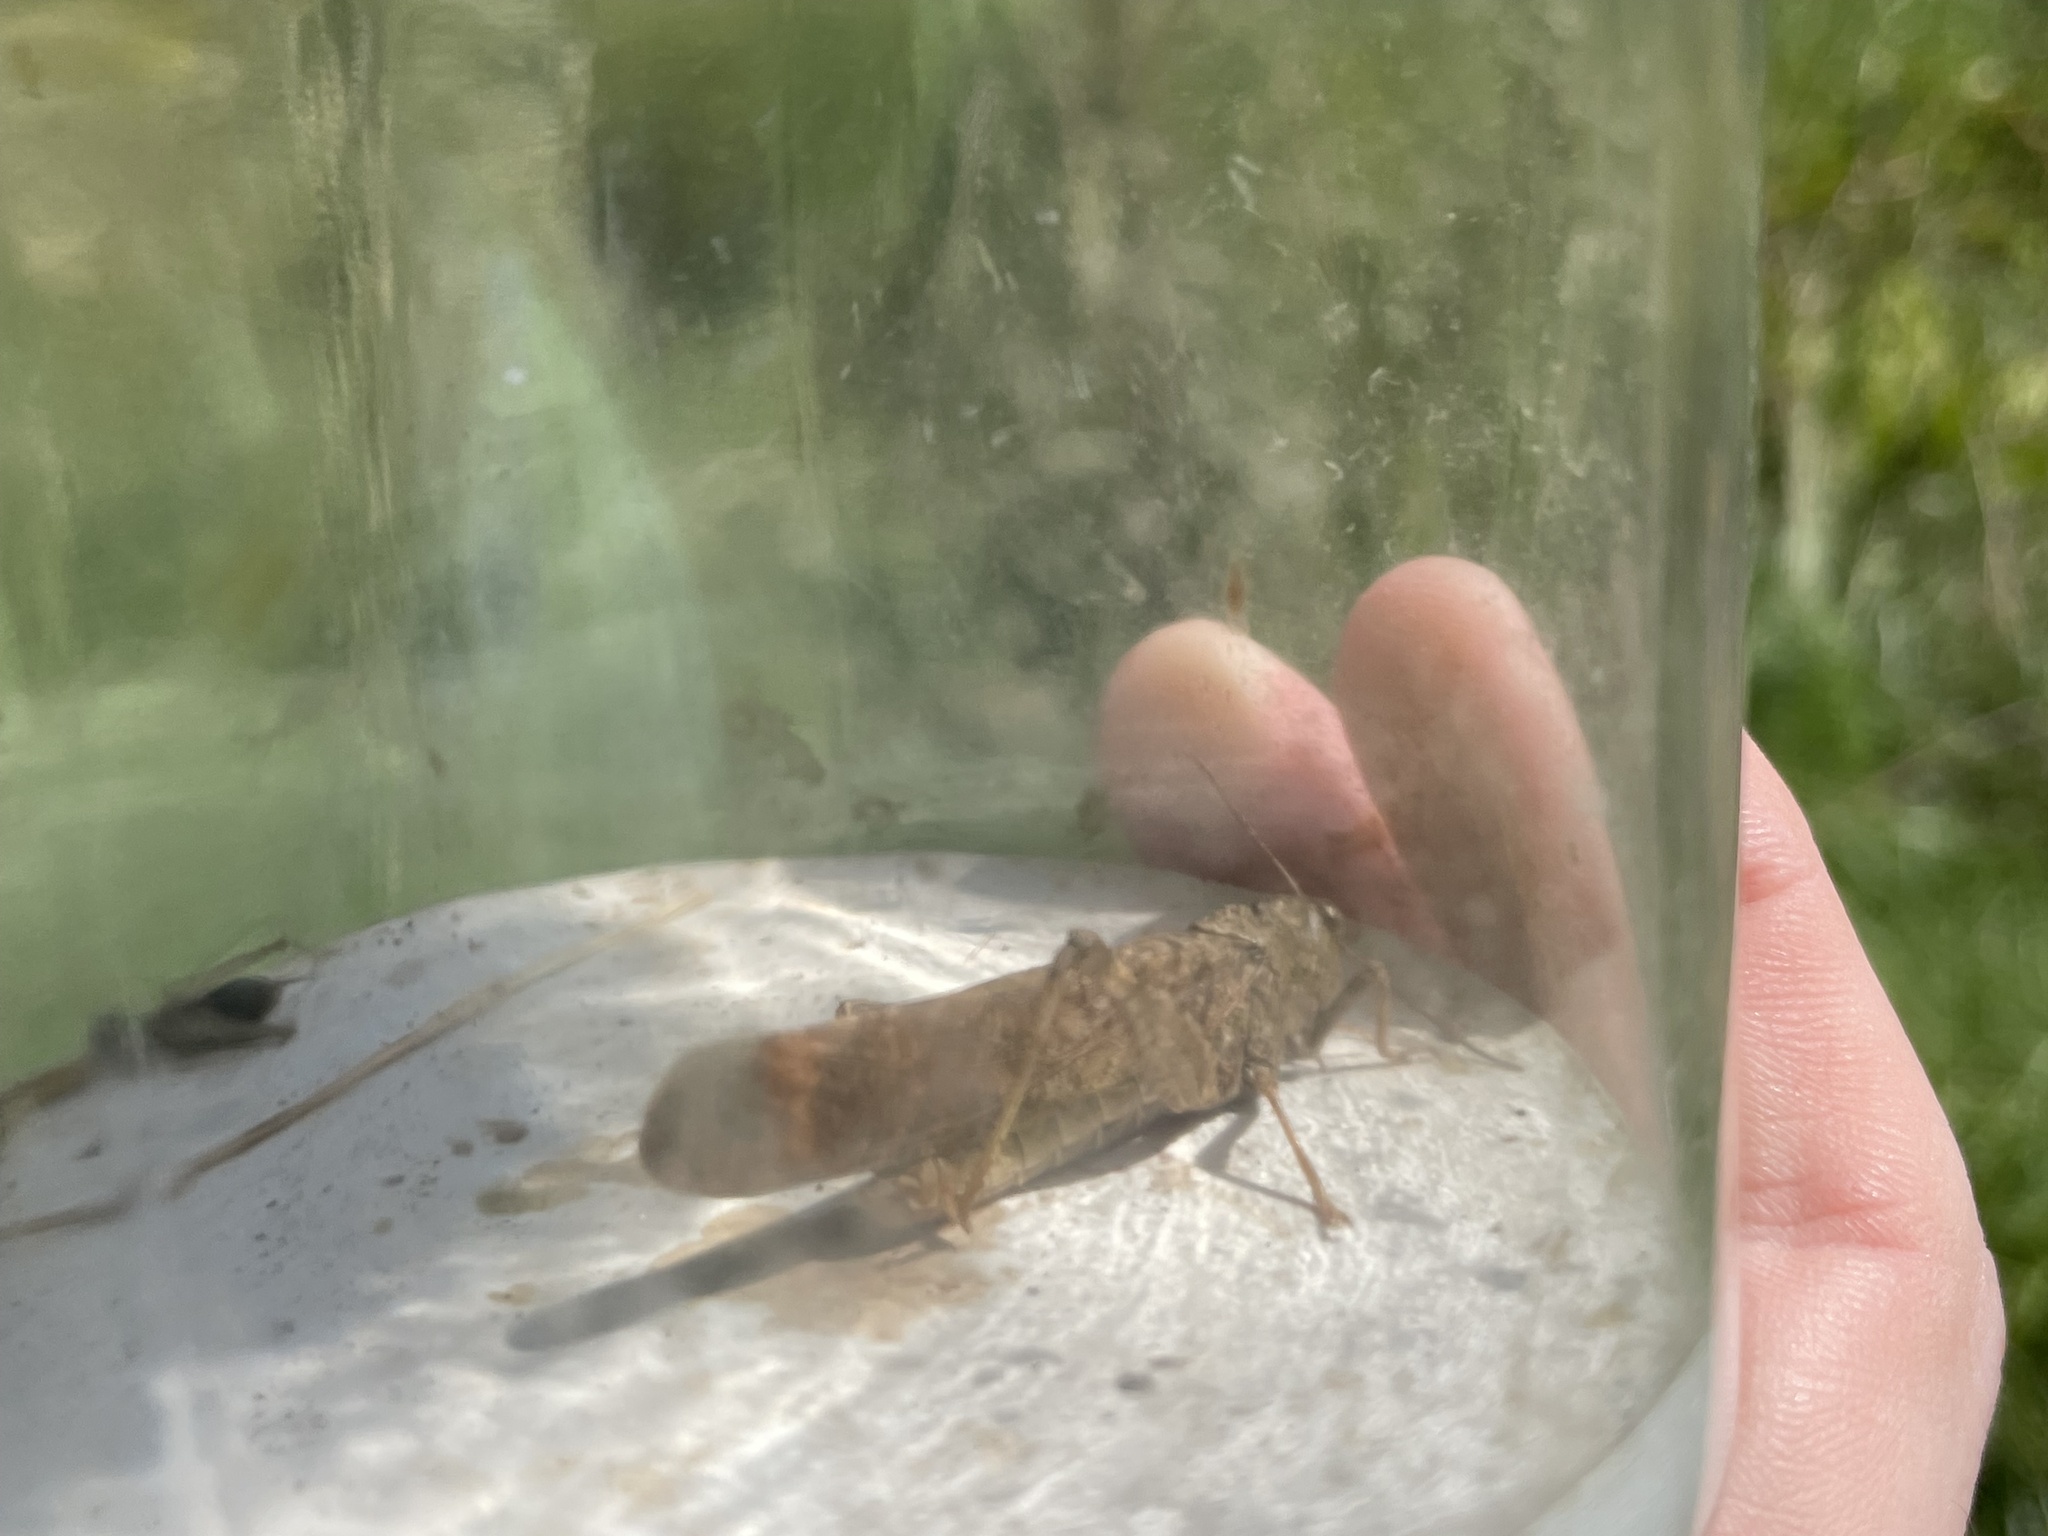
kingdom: Animalia
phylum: Arthropoda
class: Insecta
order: Orthoptera
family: Acrididae
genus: Dissosteira
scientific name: Dissosteira carolina
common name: Carolina grasshopper
